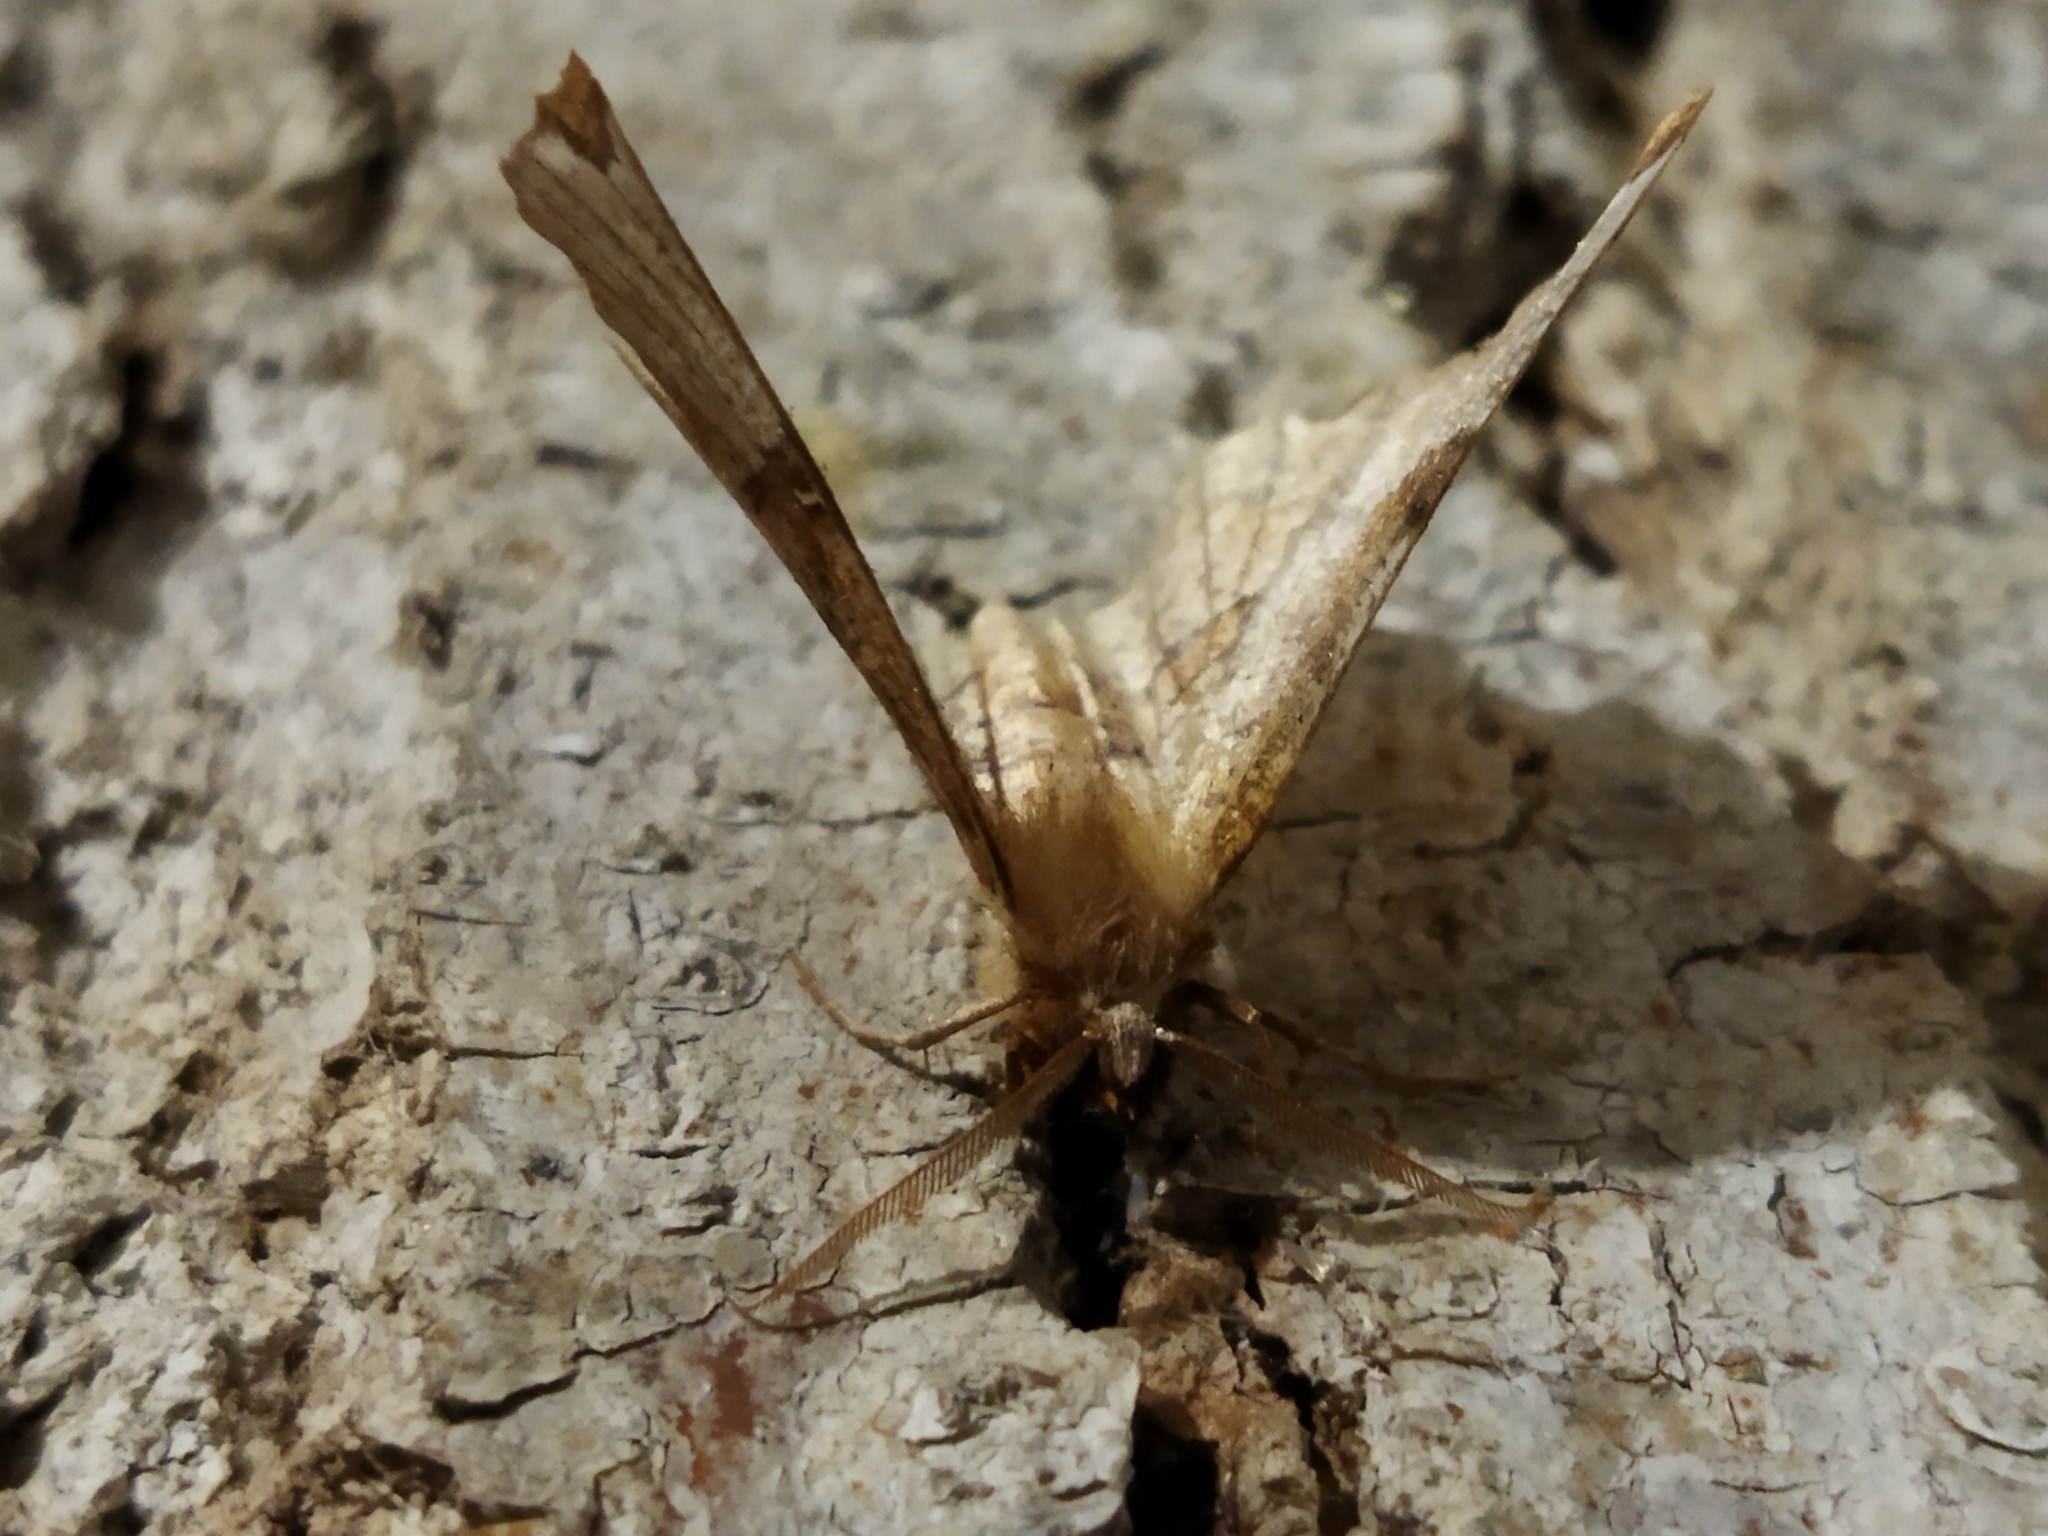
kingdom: Animalia
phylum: Arthropoda
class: Insecta
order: Lepidoptera
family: Geometridae
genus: Selenia
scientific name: Selenia lunularia
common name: Lunar thorn
